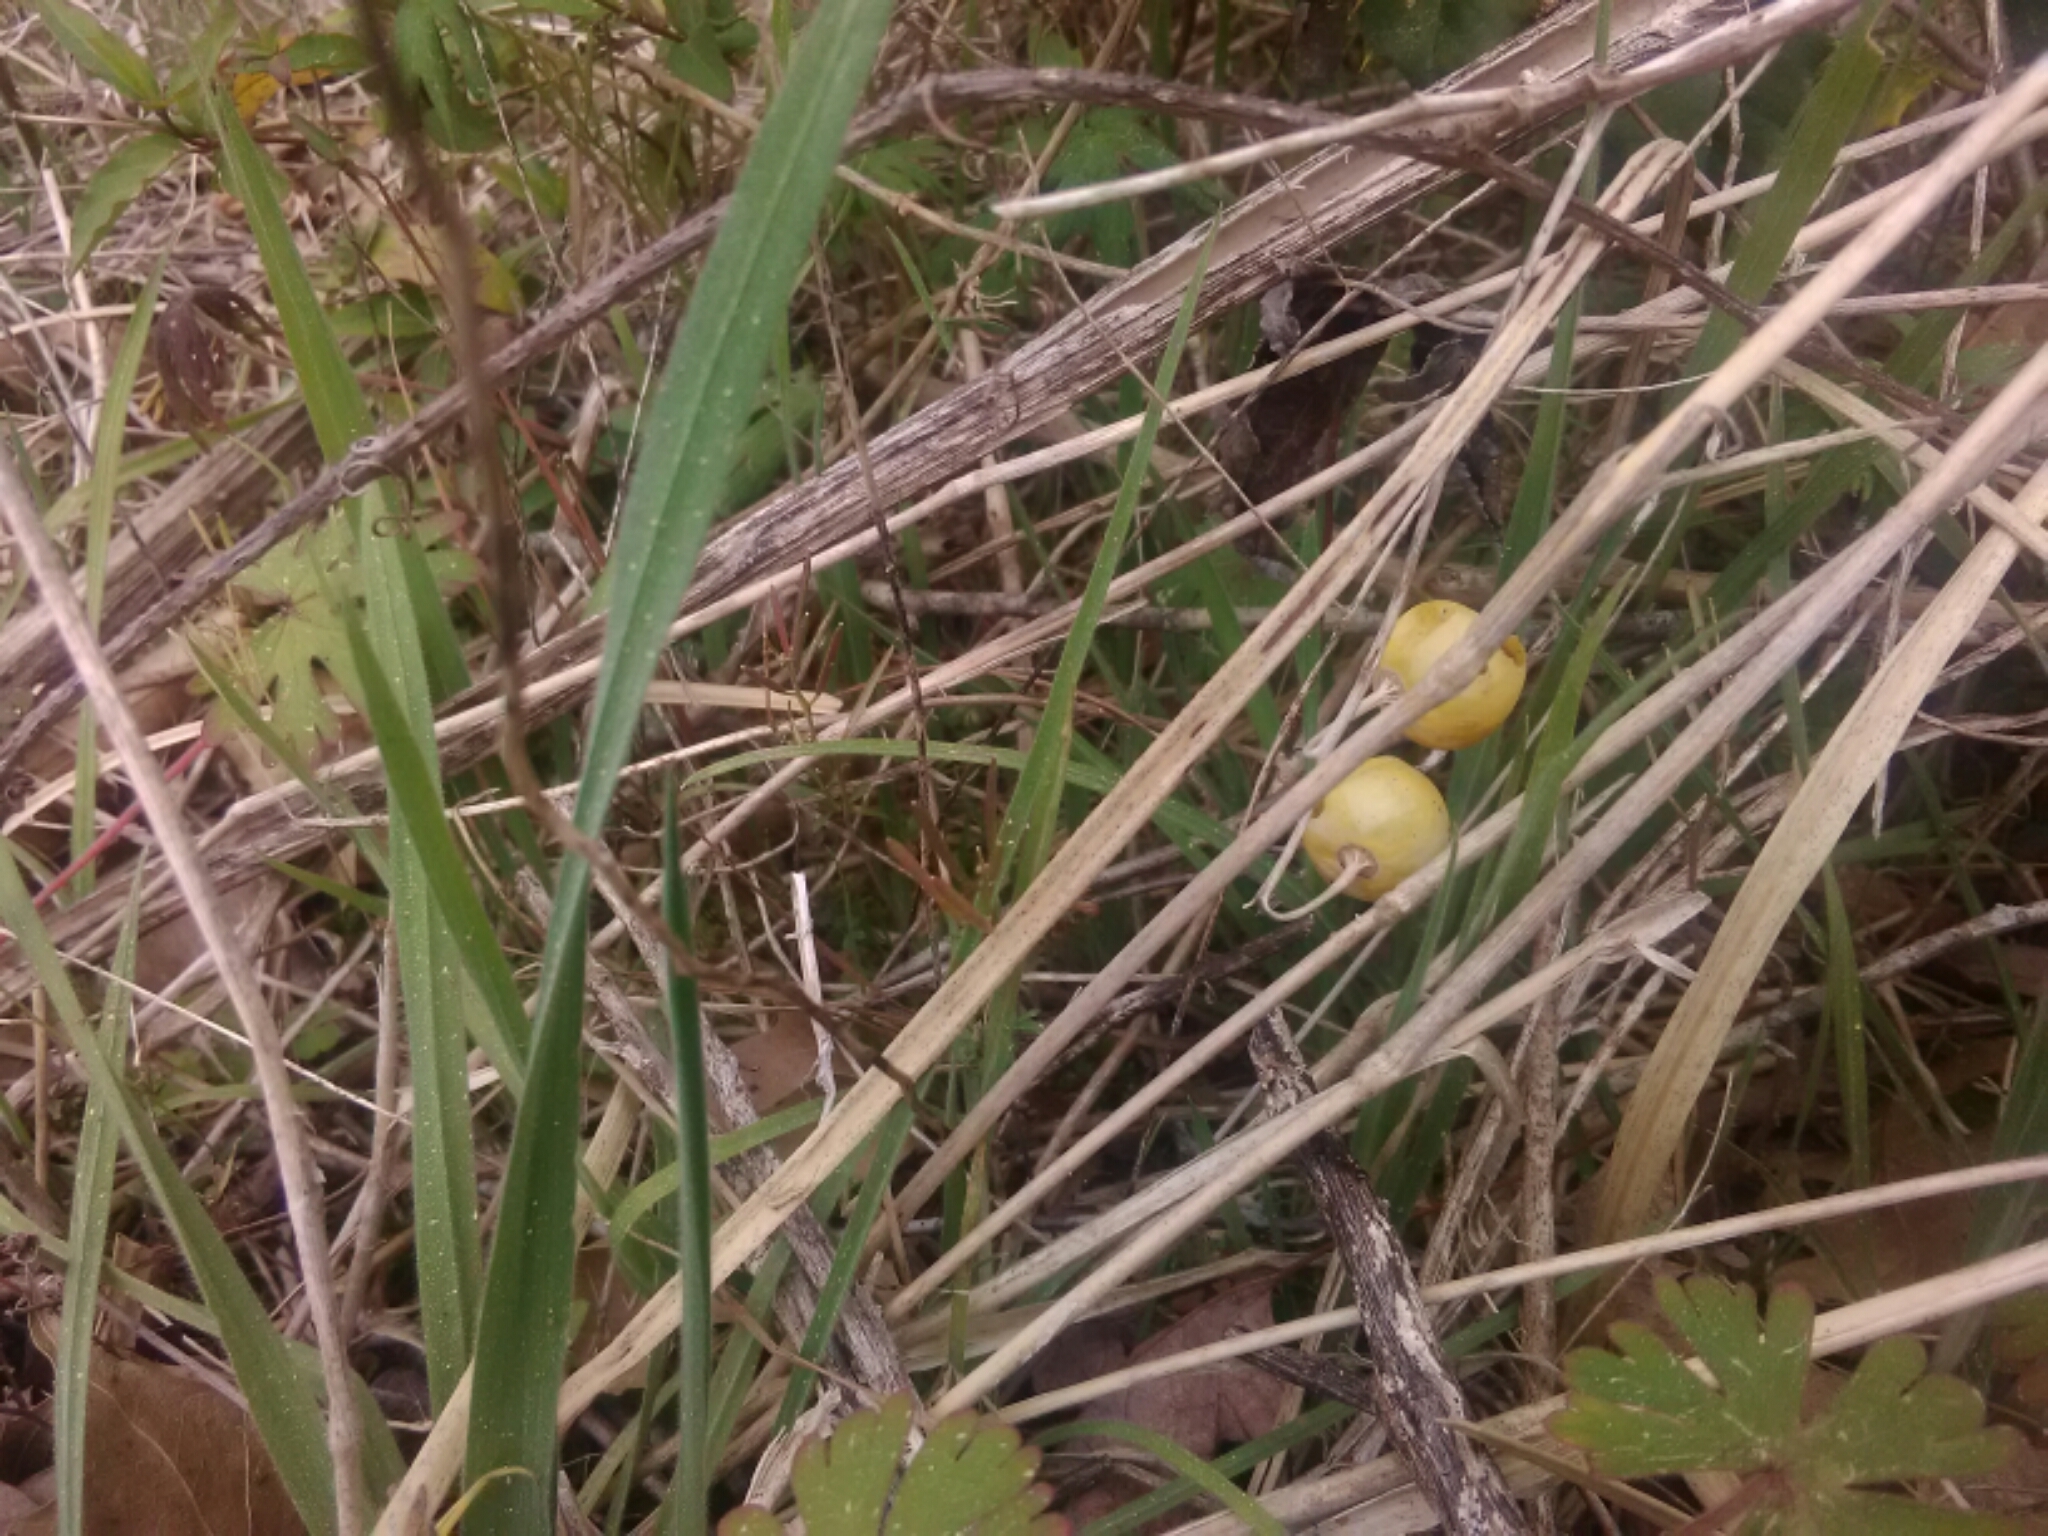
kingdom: Plantae
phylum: Tracheophyta
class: Magnoliopsida
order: Solanales
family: Solanaceae
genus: Solanum
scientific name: Solanum carolinense
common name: Horse-nettle
